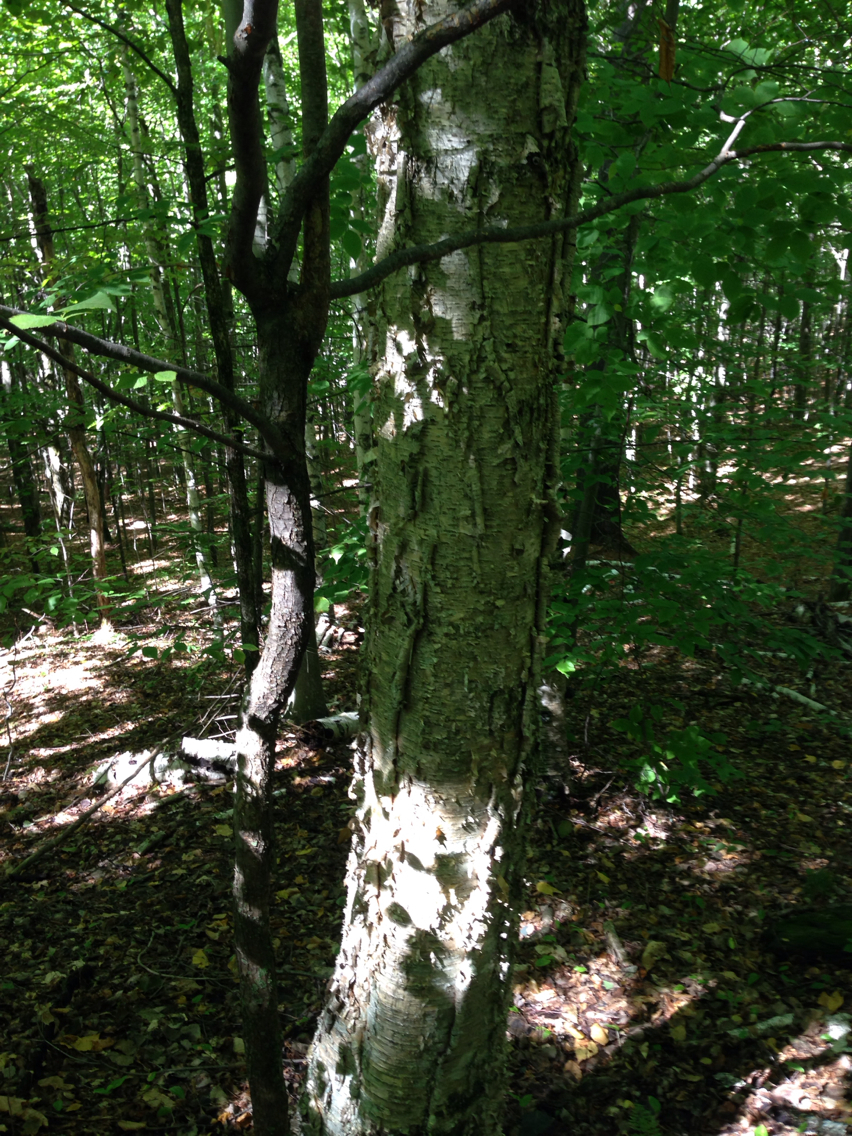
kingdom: Plantae
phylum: Tracheophyta
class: Magnoliopsida
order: Fagales
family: Betulaceae
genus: Betula
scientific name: Betula alleghaniensis
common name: Yellow birch
